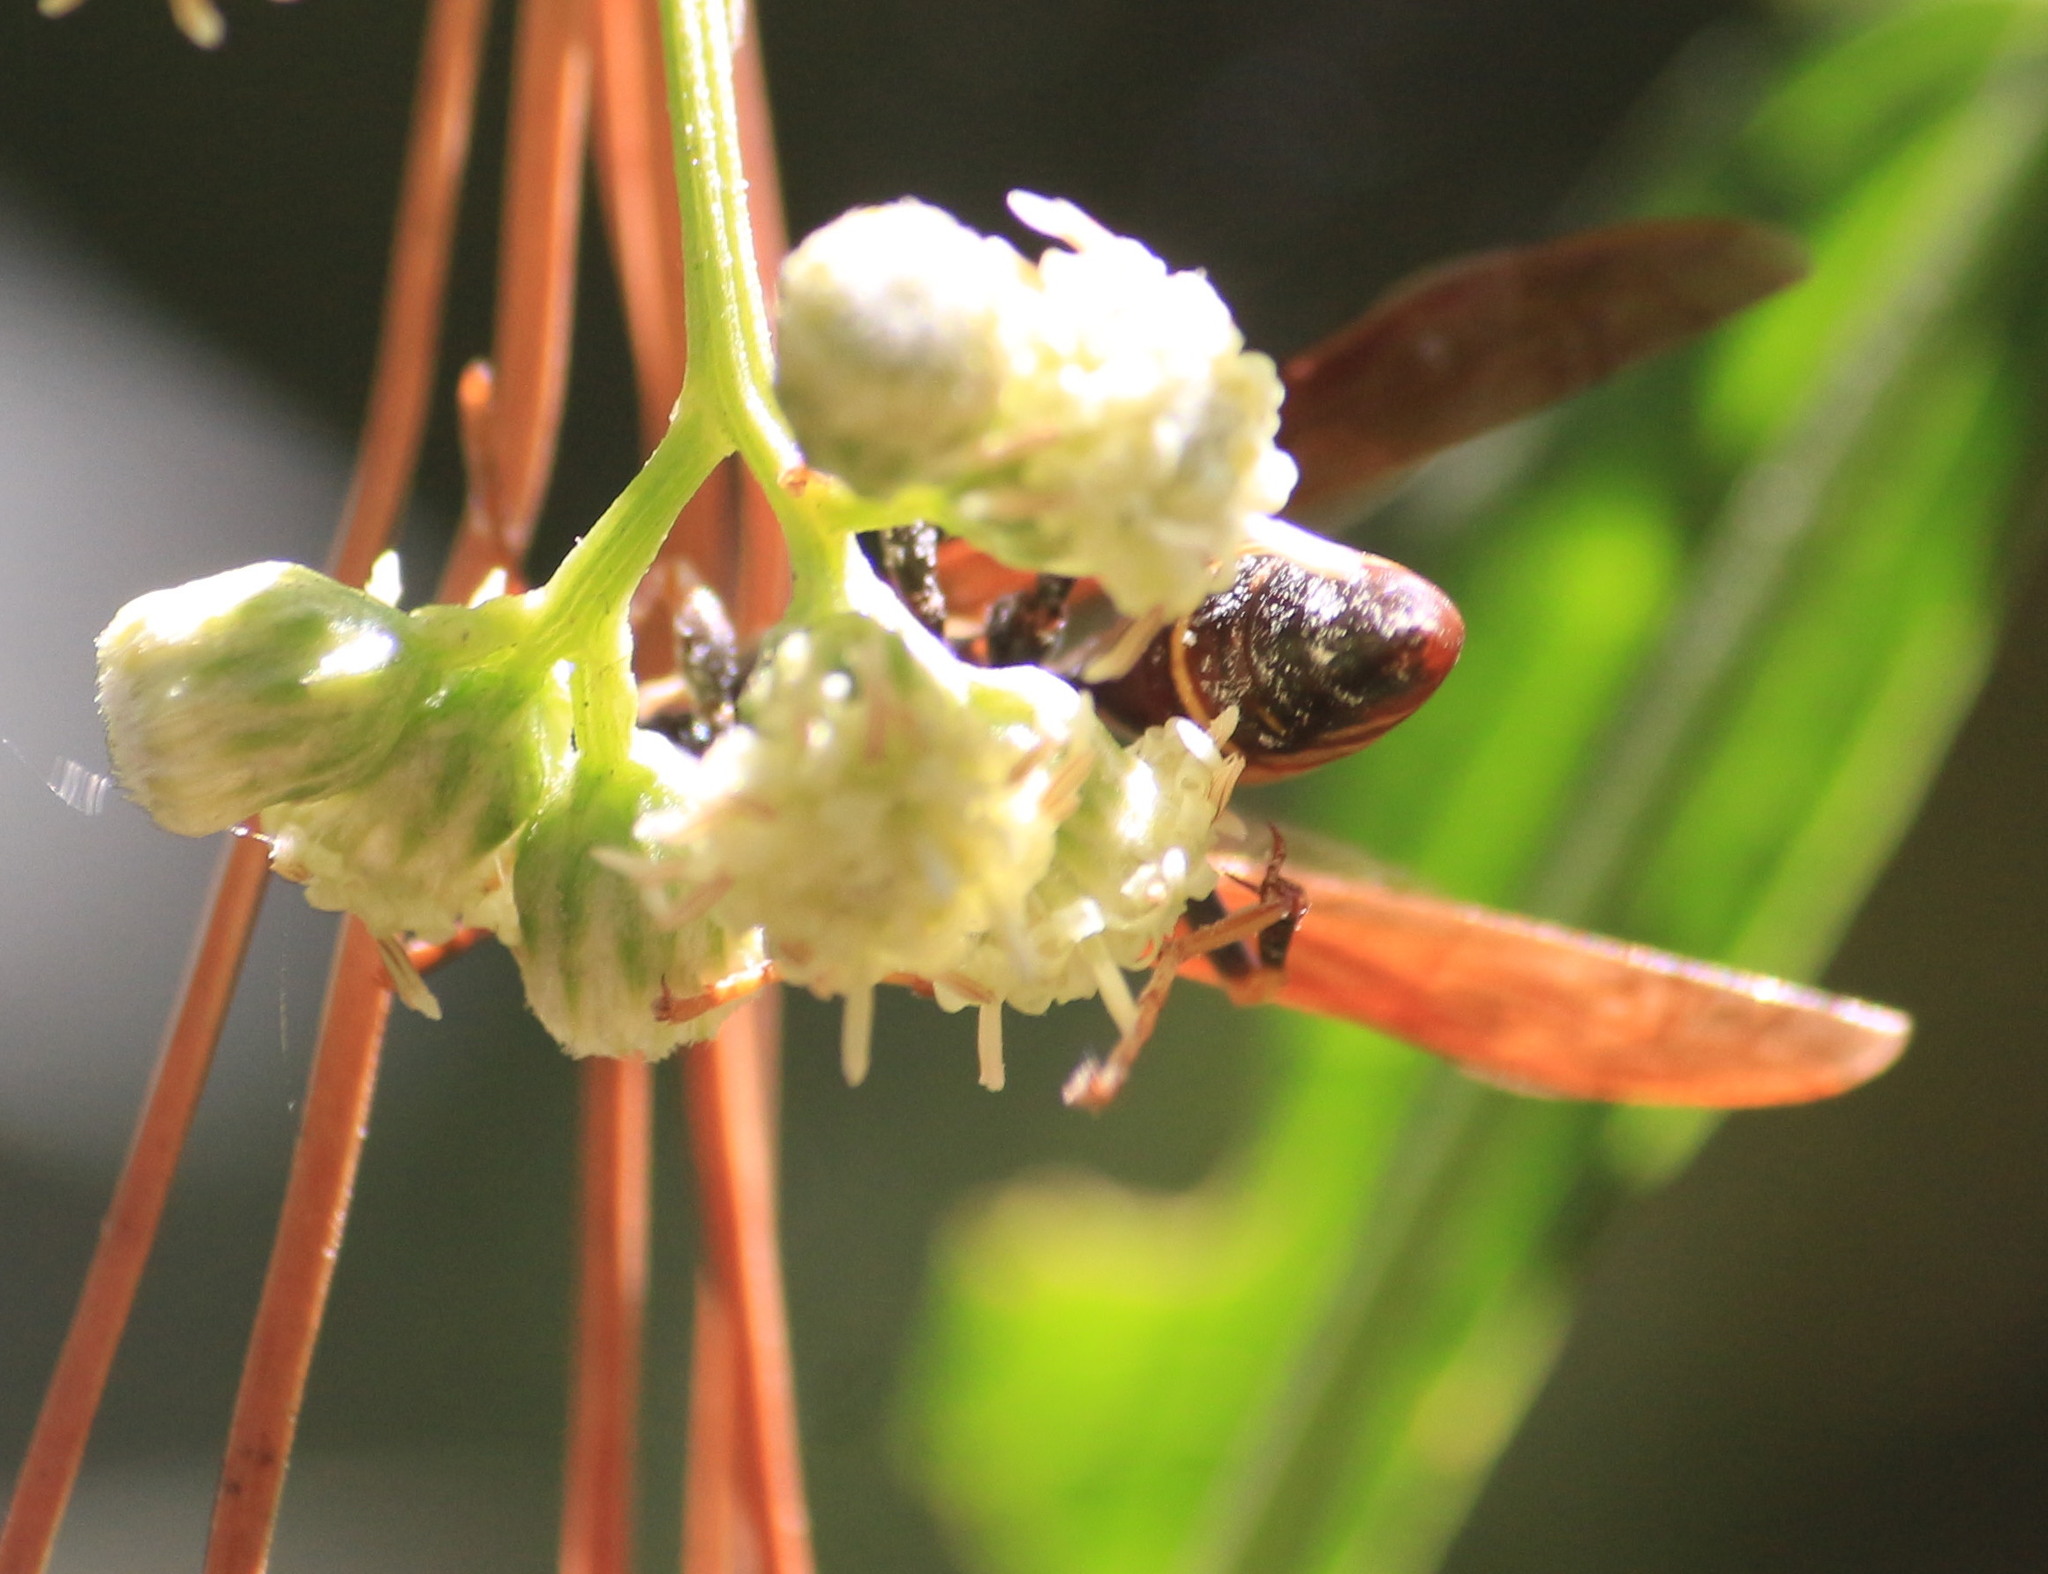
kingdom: Animalia
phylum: Arthropoda
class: Insecta
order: Hymenoptera
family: Eumenidae
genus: Polistes
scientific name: Polistes instabilis
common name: Unstable paper wasp
